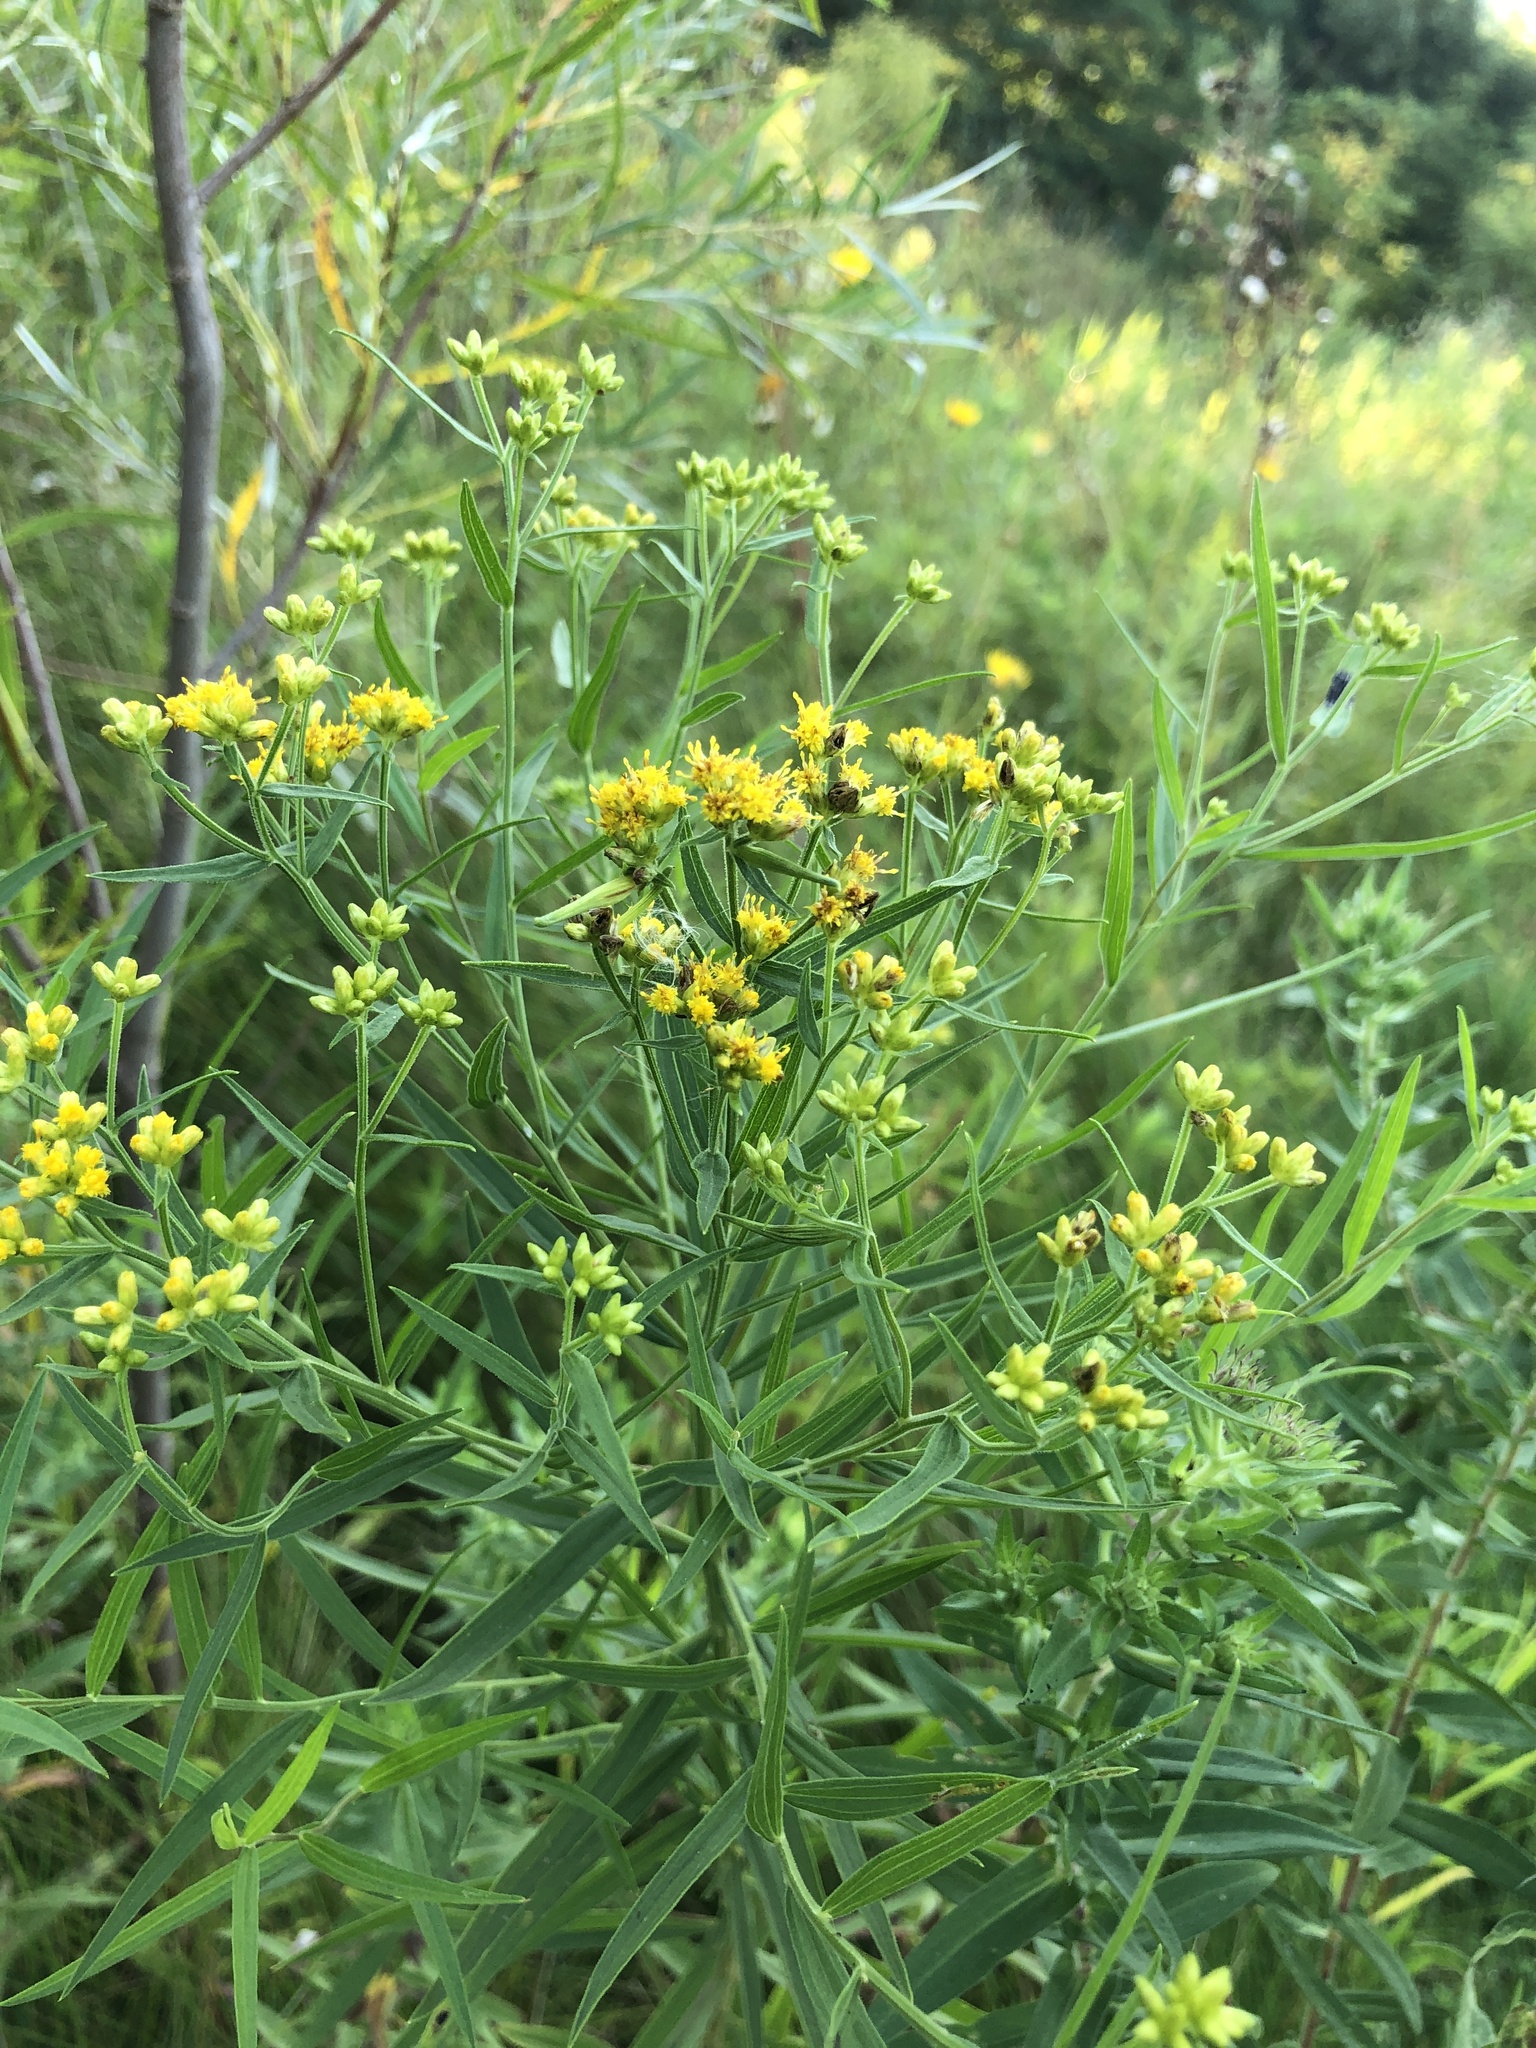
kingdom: Plantae
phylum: Tracheophyta
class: Magnoliopsida
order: Asterales
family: Asteraceae
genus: Euthamia
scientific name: Euthamia graminifolia
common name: Common goldentop
